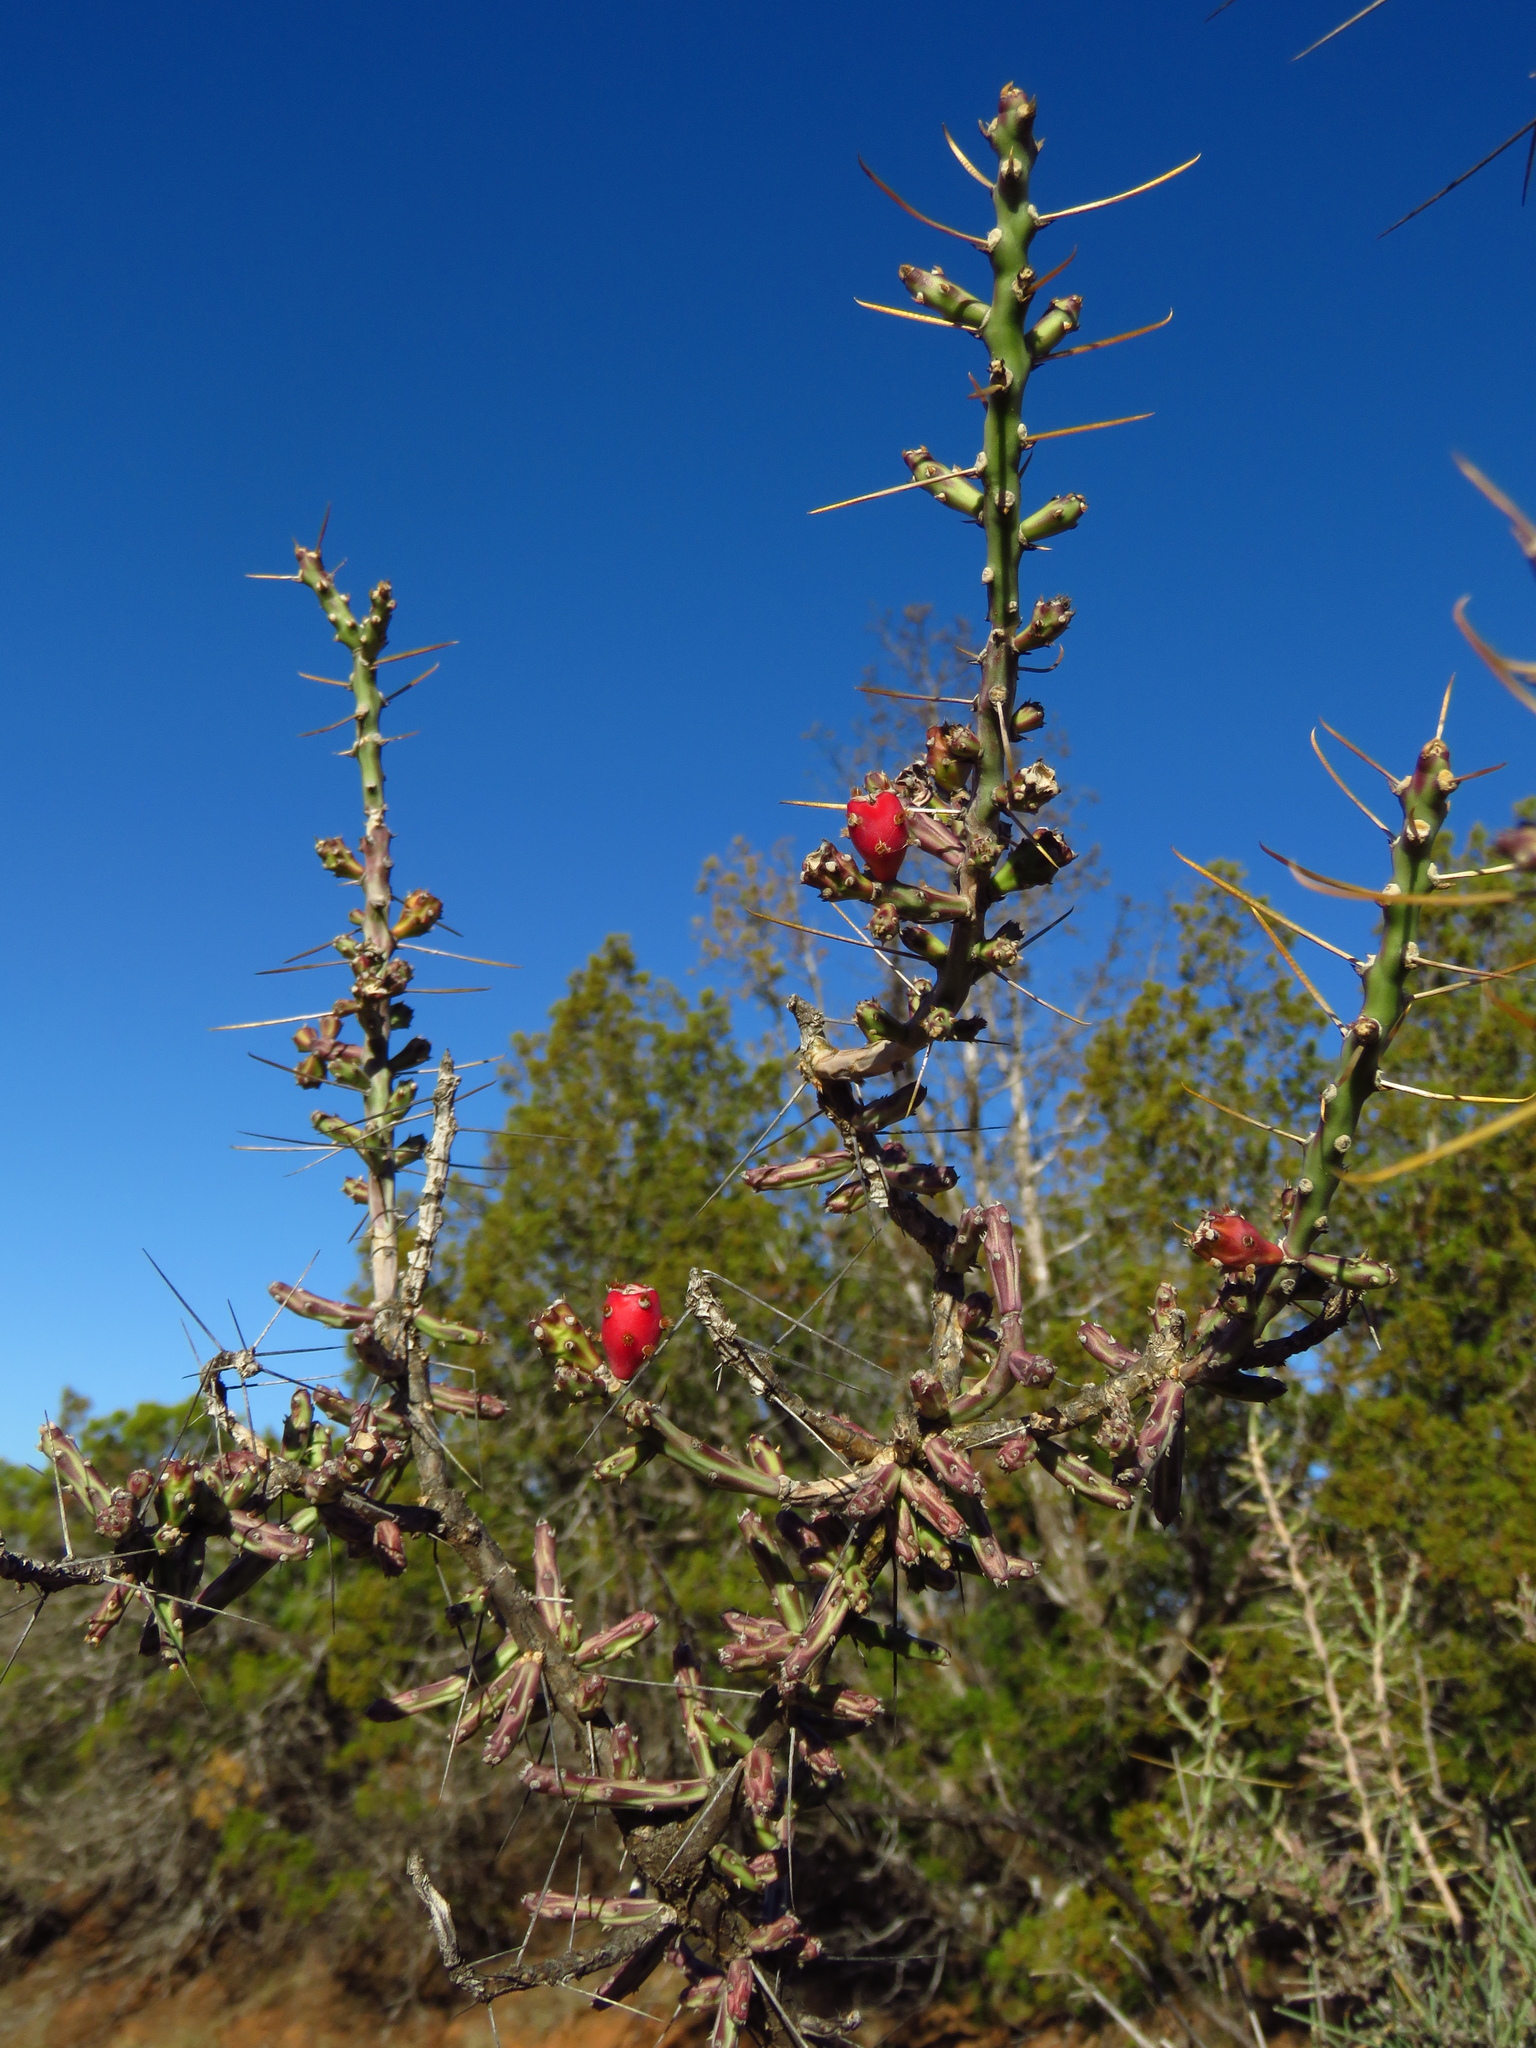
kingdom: Plantae
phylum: Tracheophyta
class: Magnoliopsida
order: Caryophyllales
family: Cactaceae
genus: Cylindropuntia
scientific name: Cylindropuntia leptocaulis
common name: Christmas cactus
